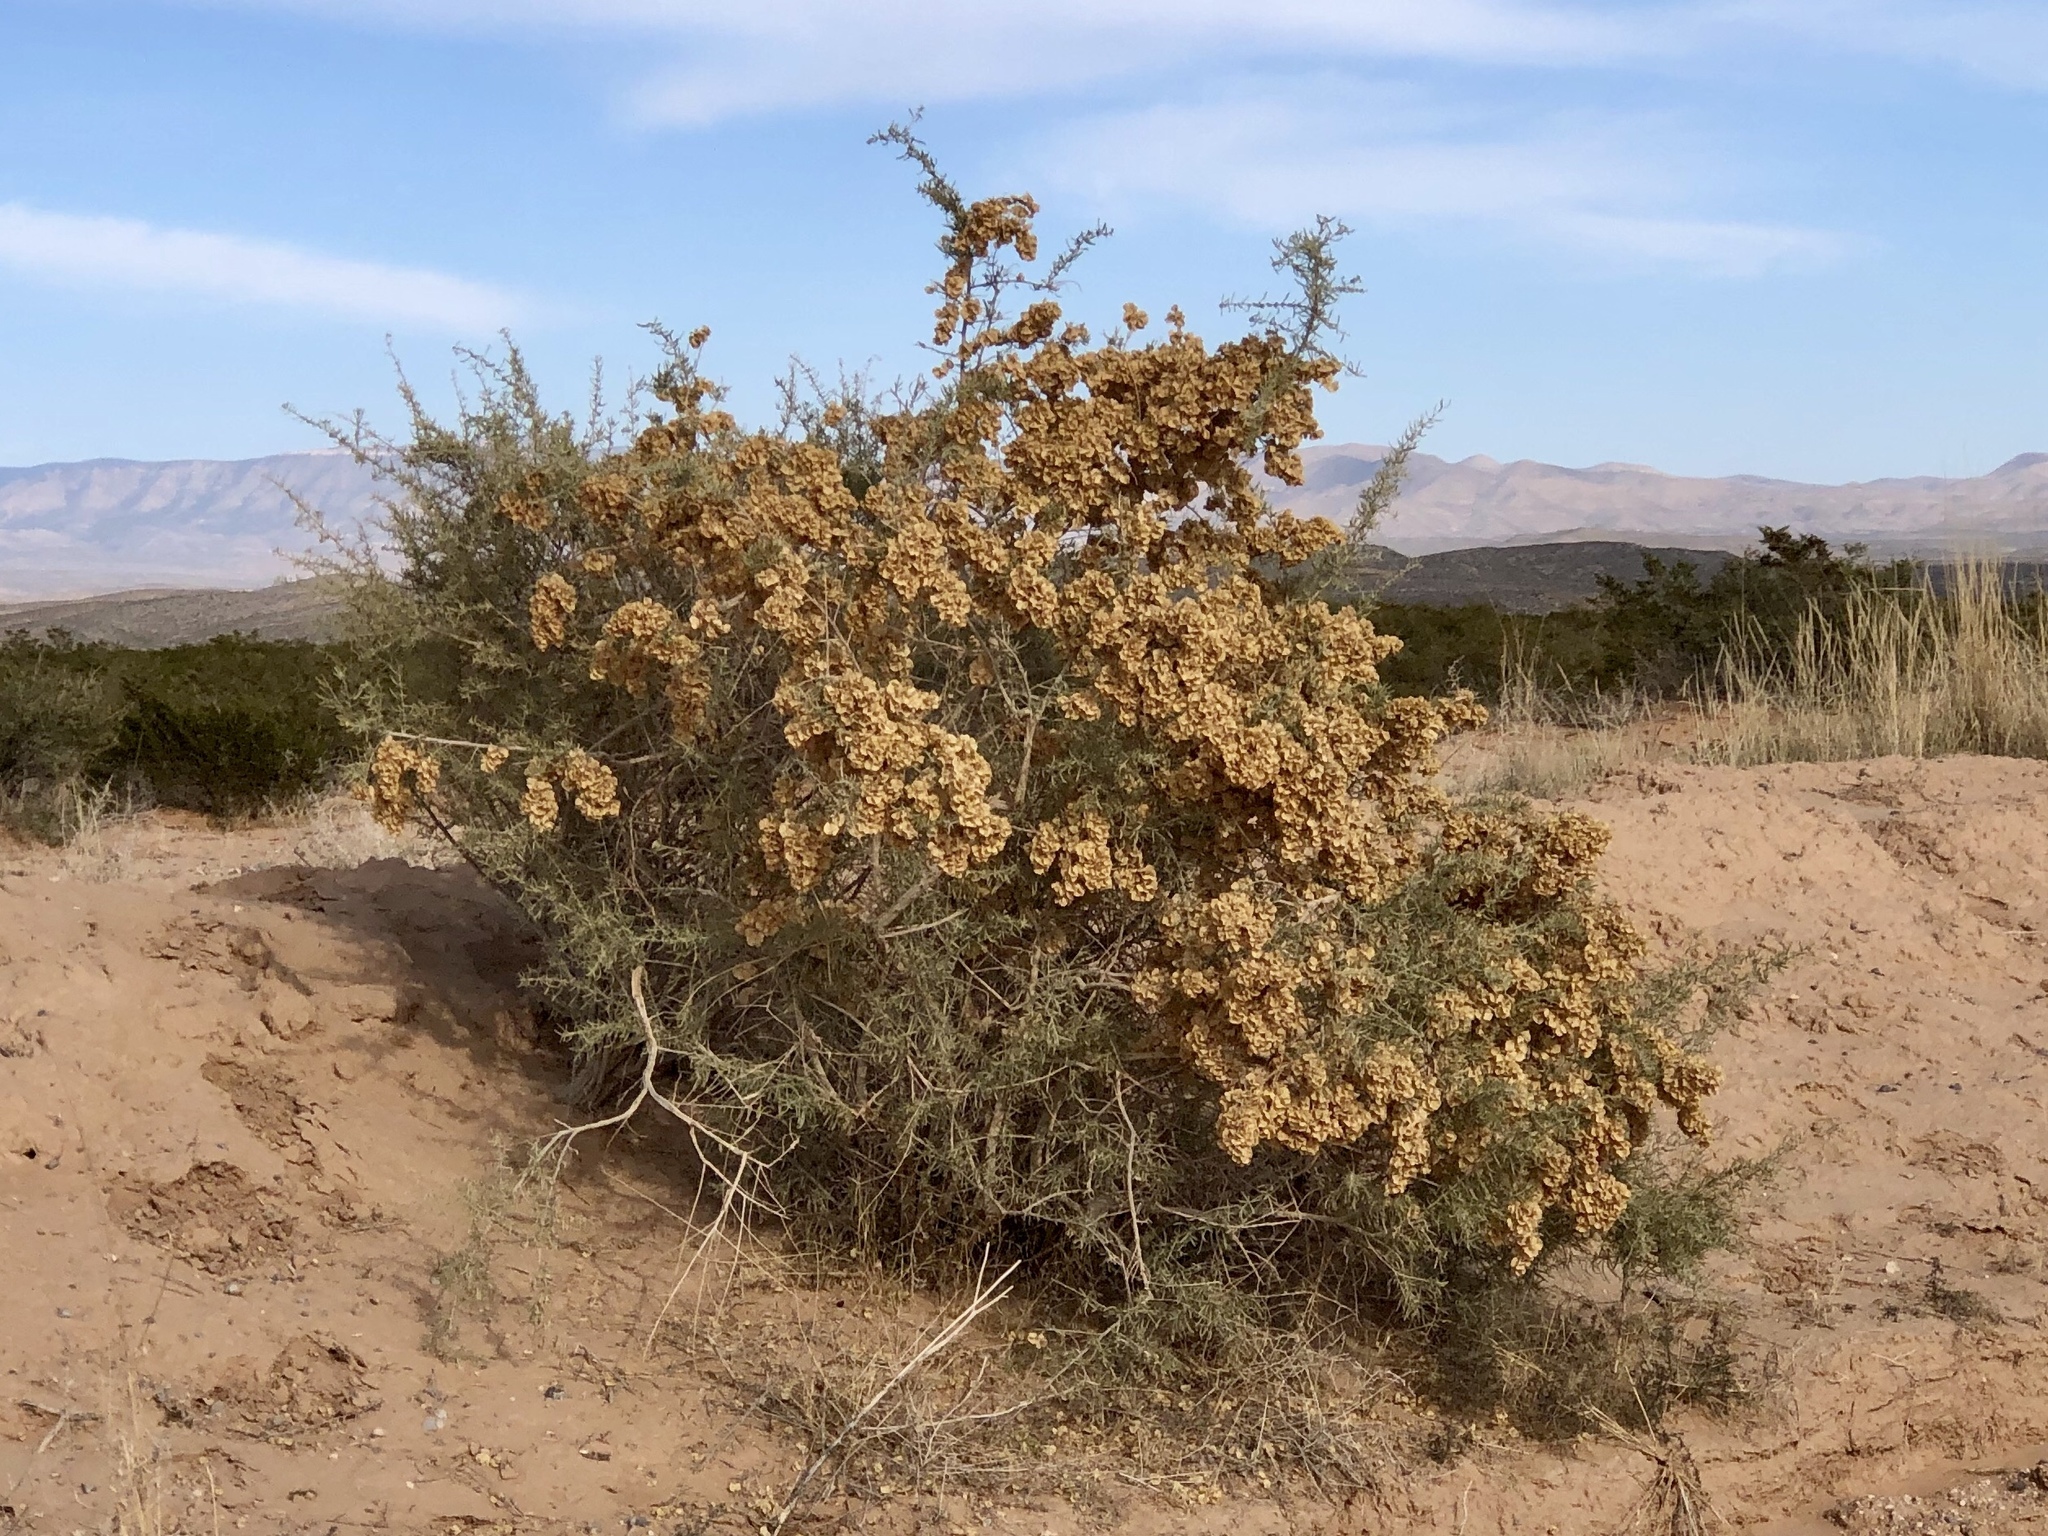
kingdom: Plantae
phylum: Tracheophyta
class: Magnoliopsida
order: Caryophyllales
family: Amaranthaceae
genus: Atriplex
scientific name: Atriplex canescens
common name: Four-wing saltbush
